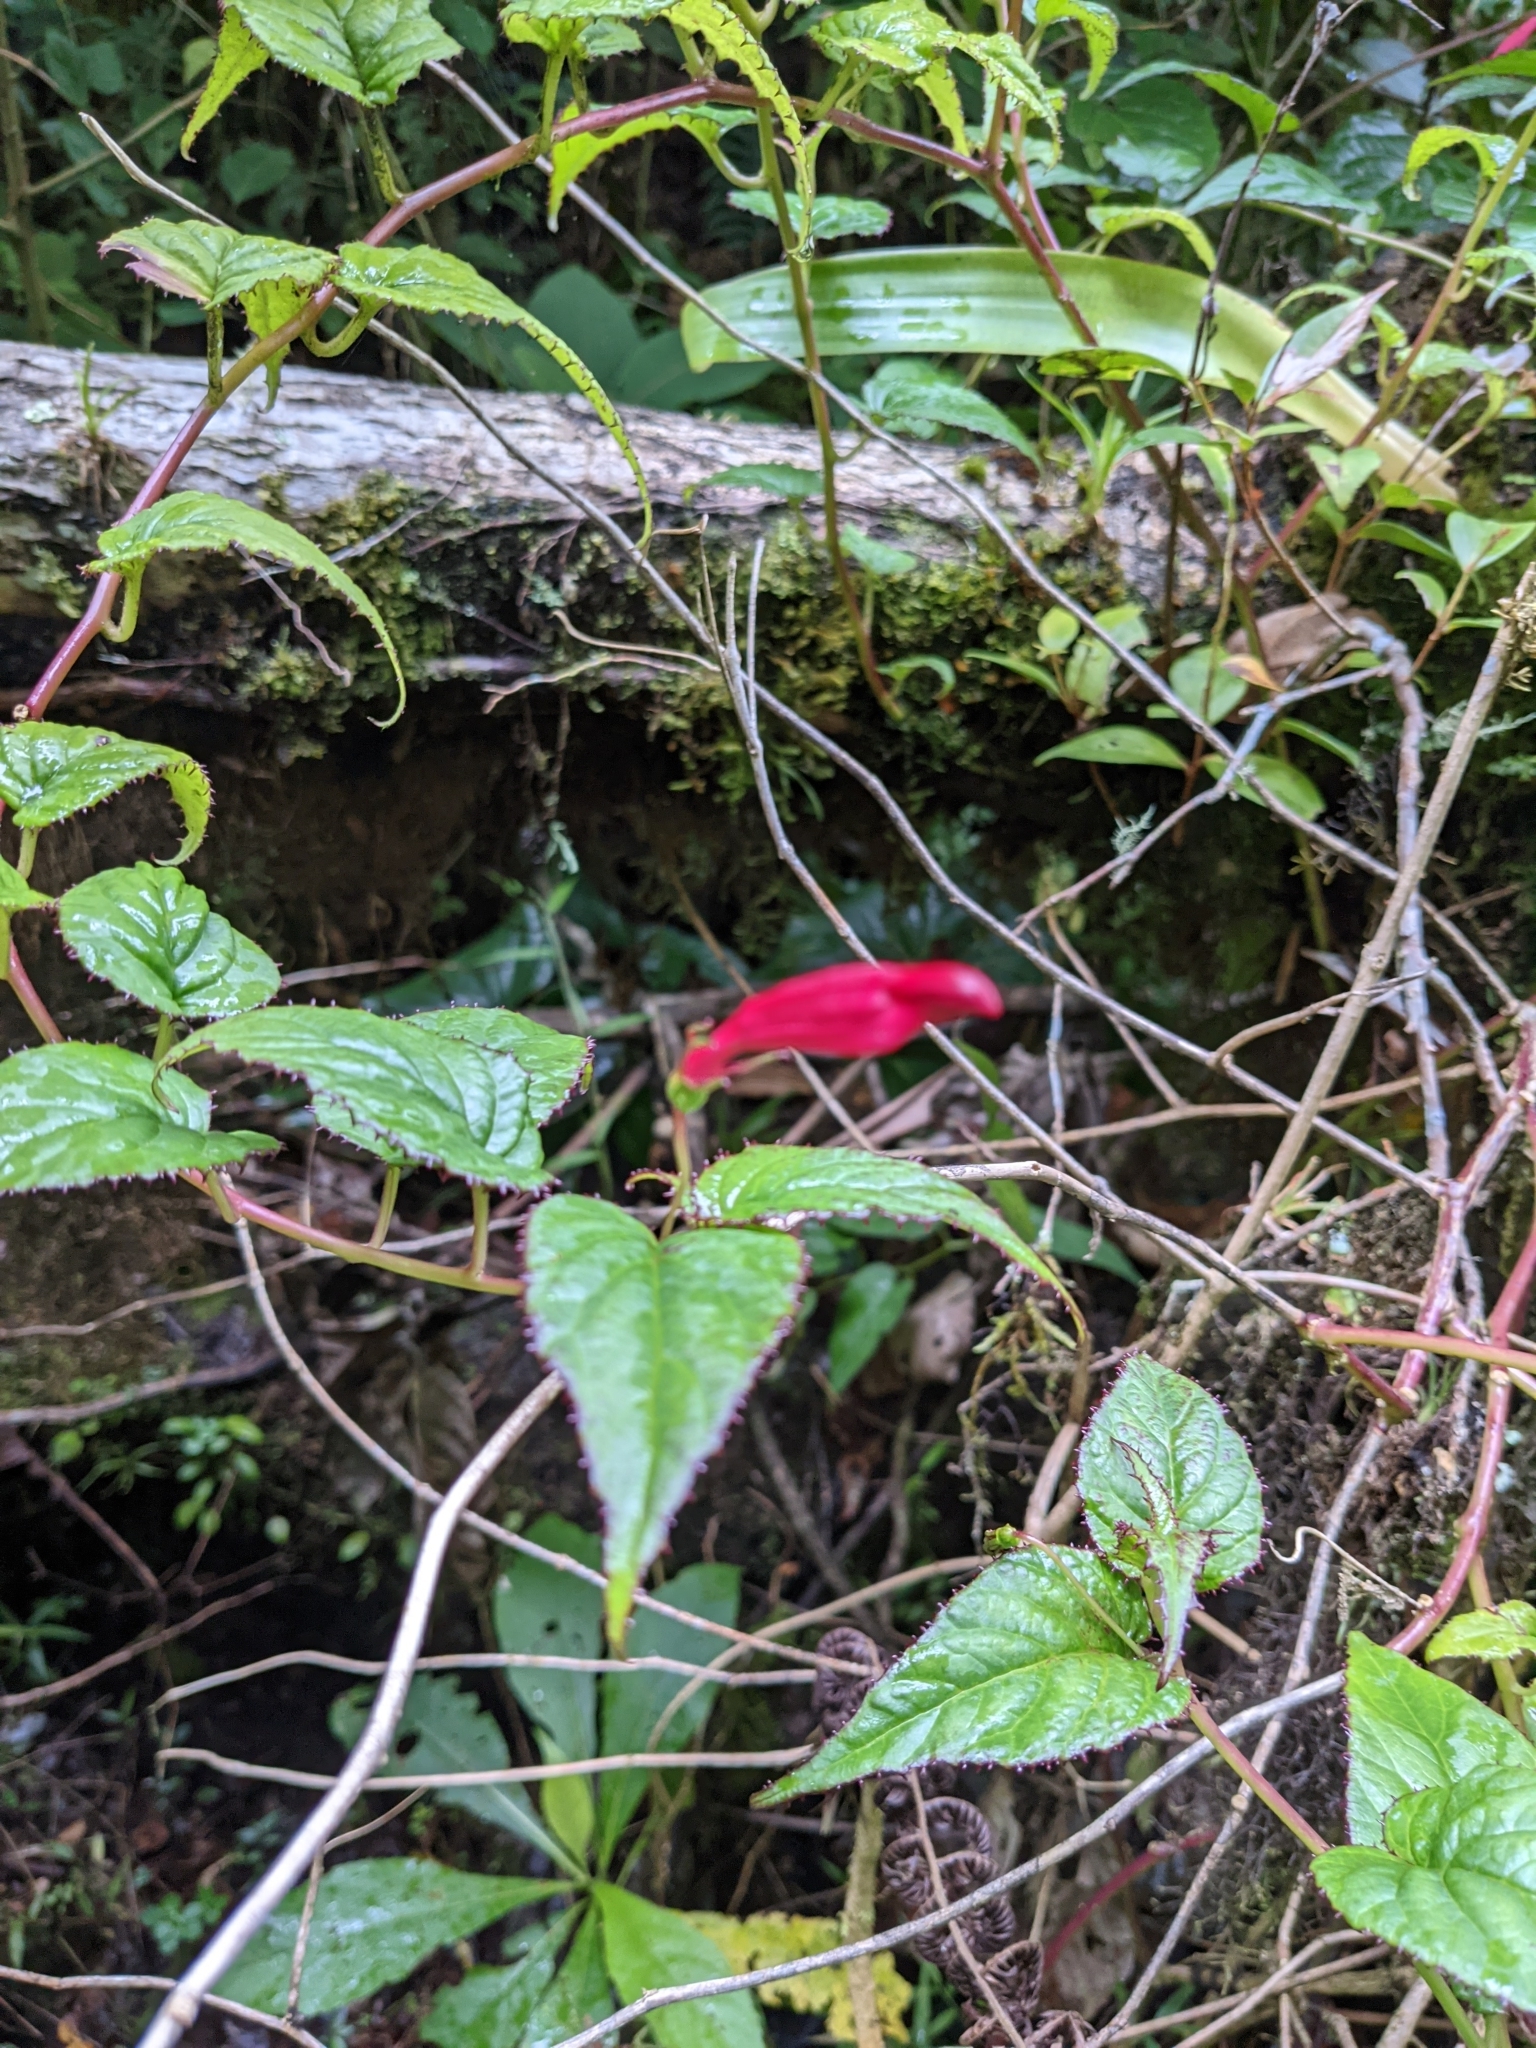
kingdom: Plantae
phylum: Tracheophyta
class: Magnoliopsida
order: Asterales
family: Campanulaceae
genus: Centropogon
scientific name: Centropogon costaricae
